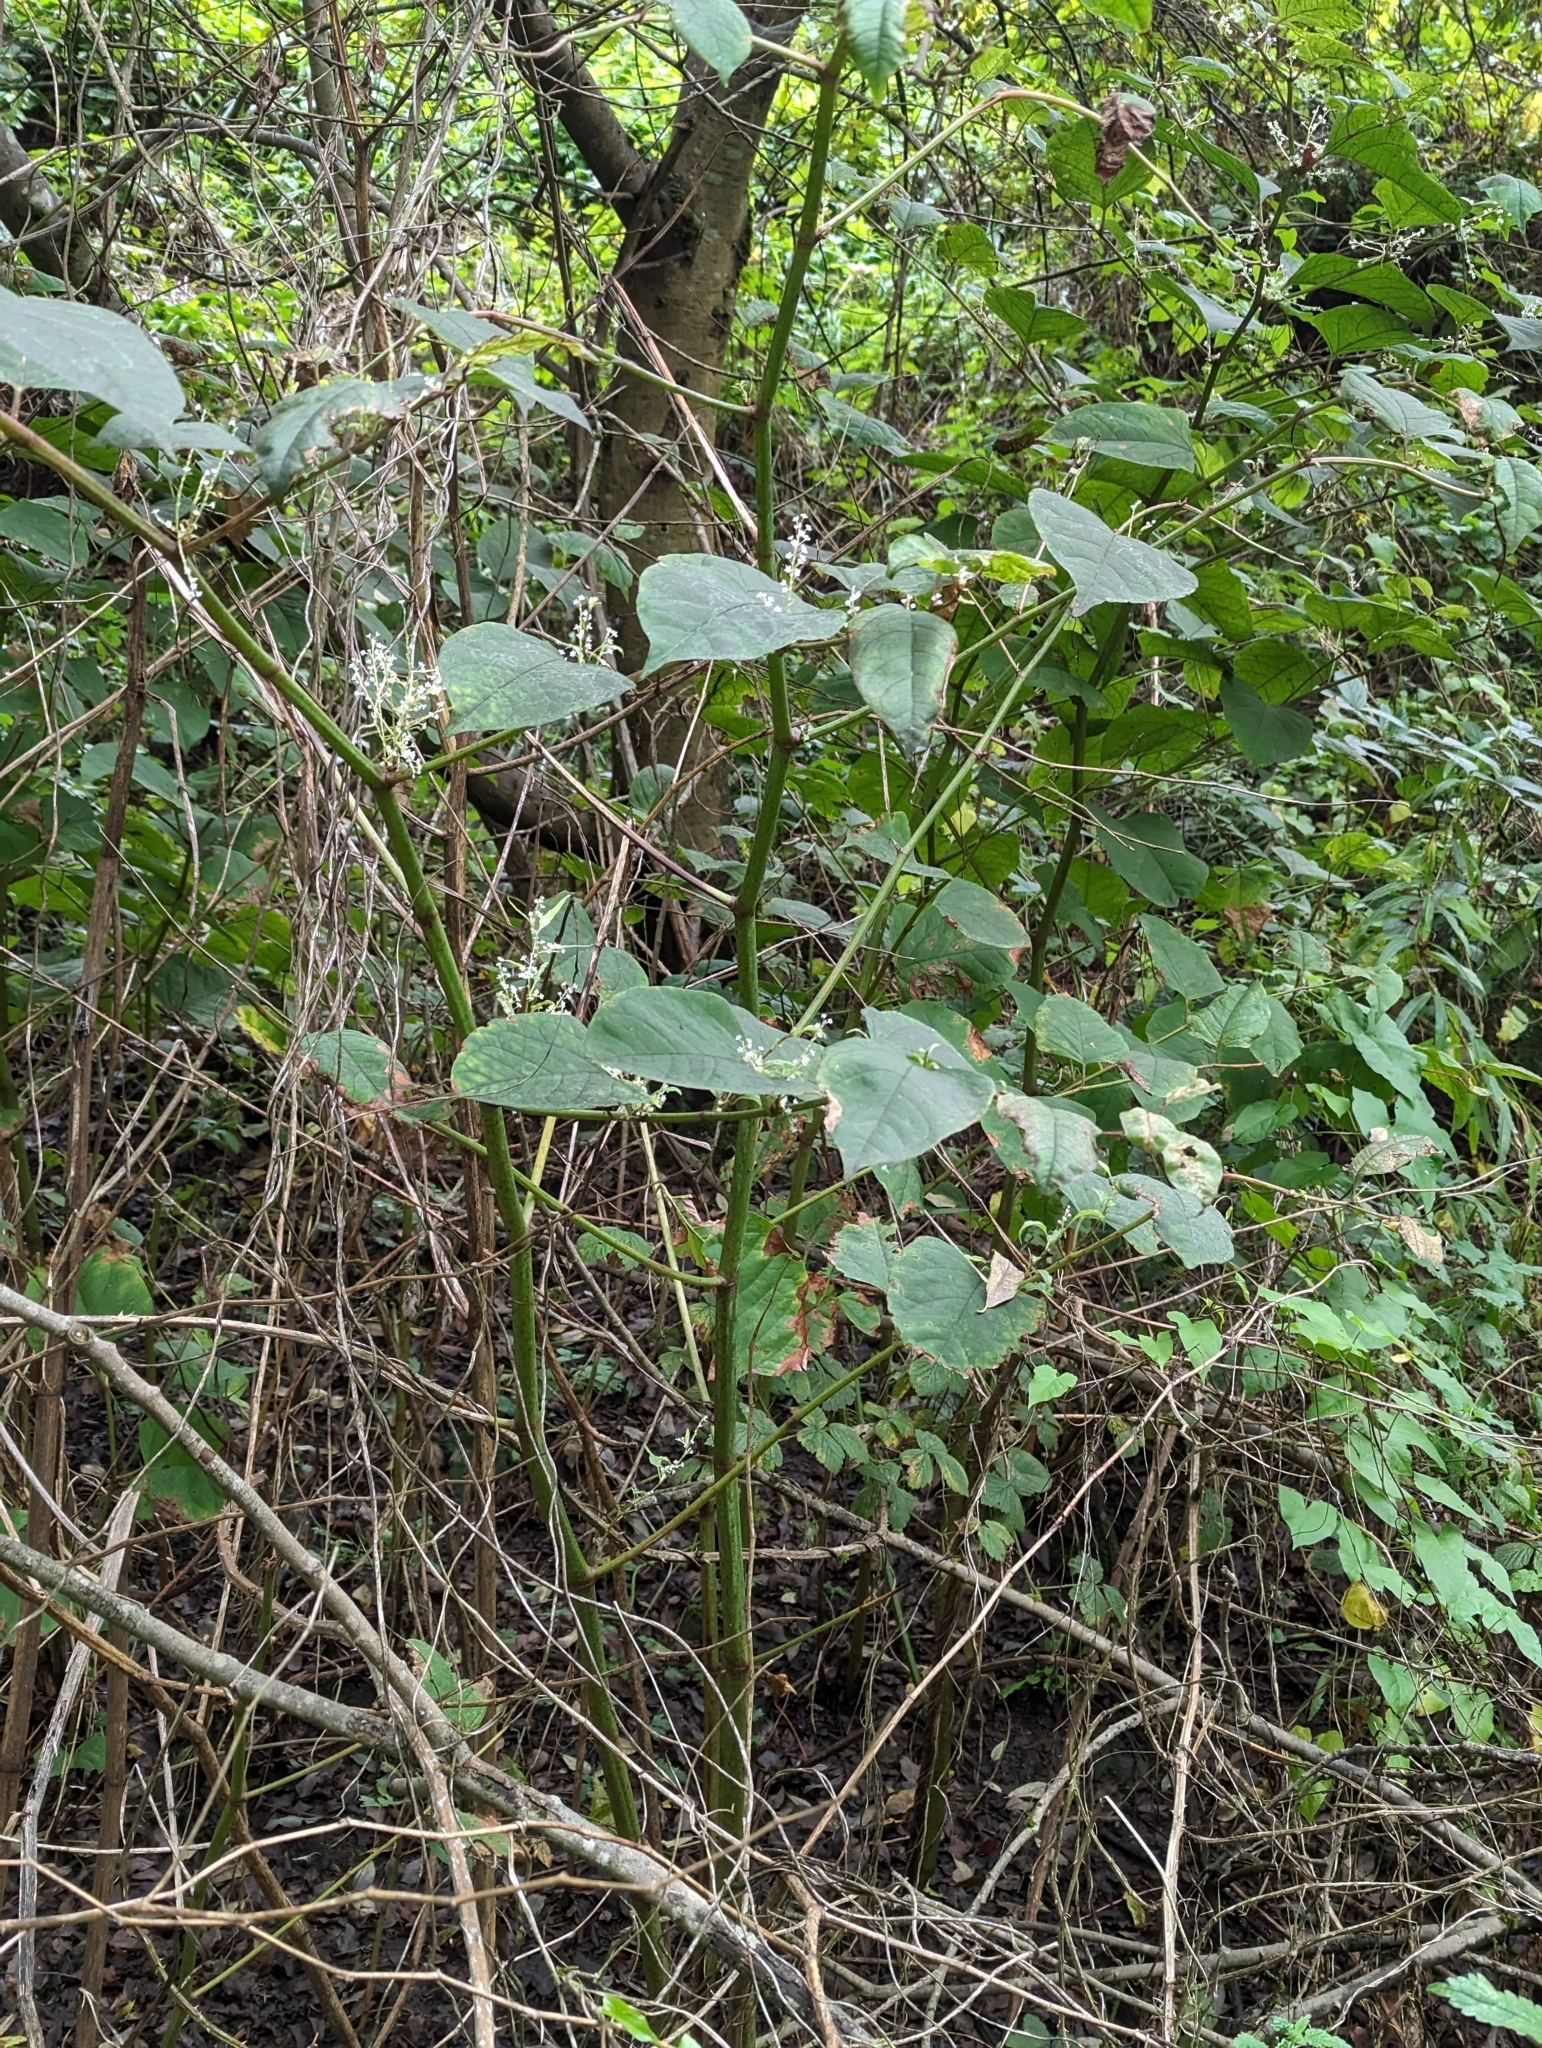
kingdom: Plantae
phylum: Tracheophyta
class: Magnoliopsida
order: Caryophyllales
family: Polygonaceae
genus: Reynoutria
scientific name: Reynoutria japonica
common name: Japanese knotweed
